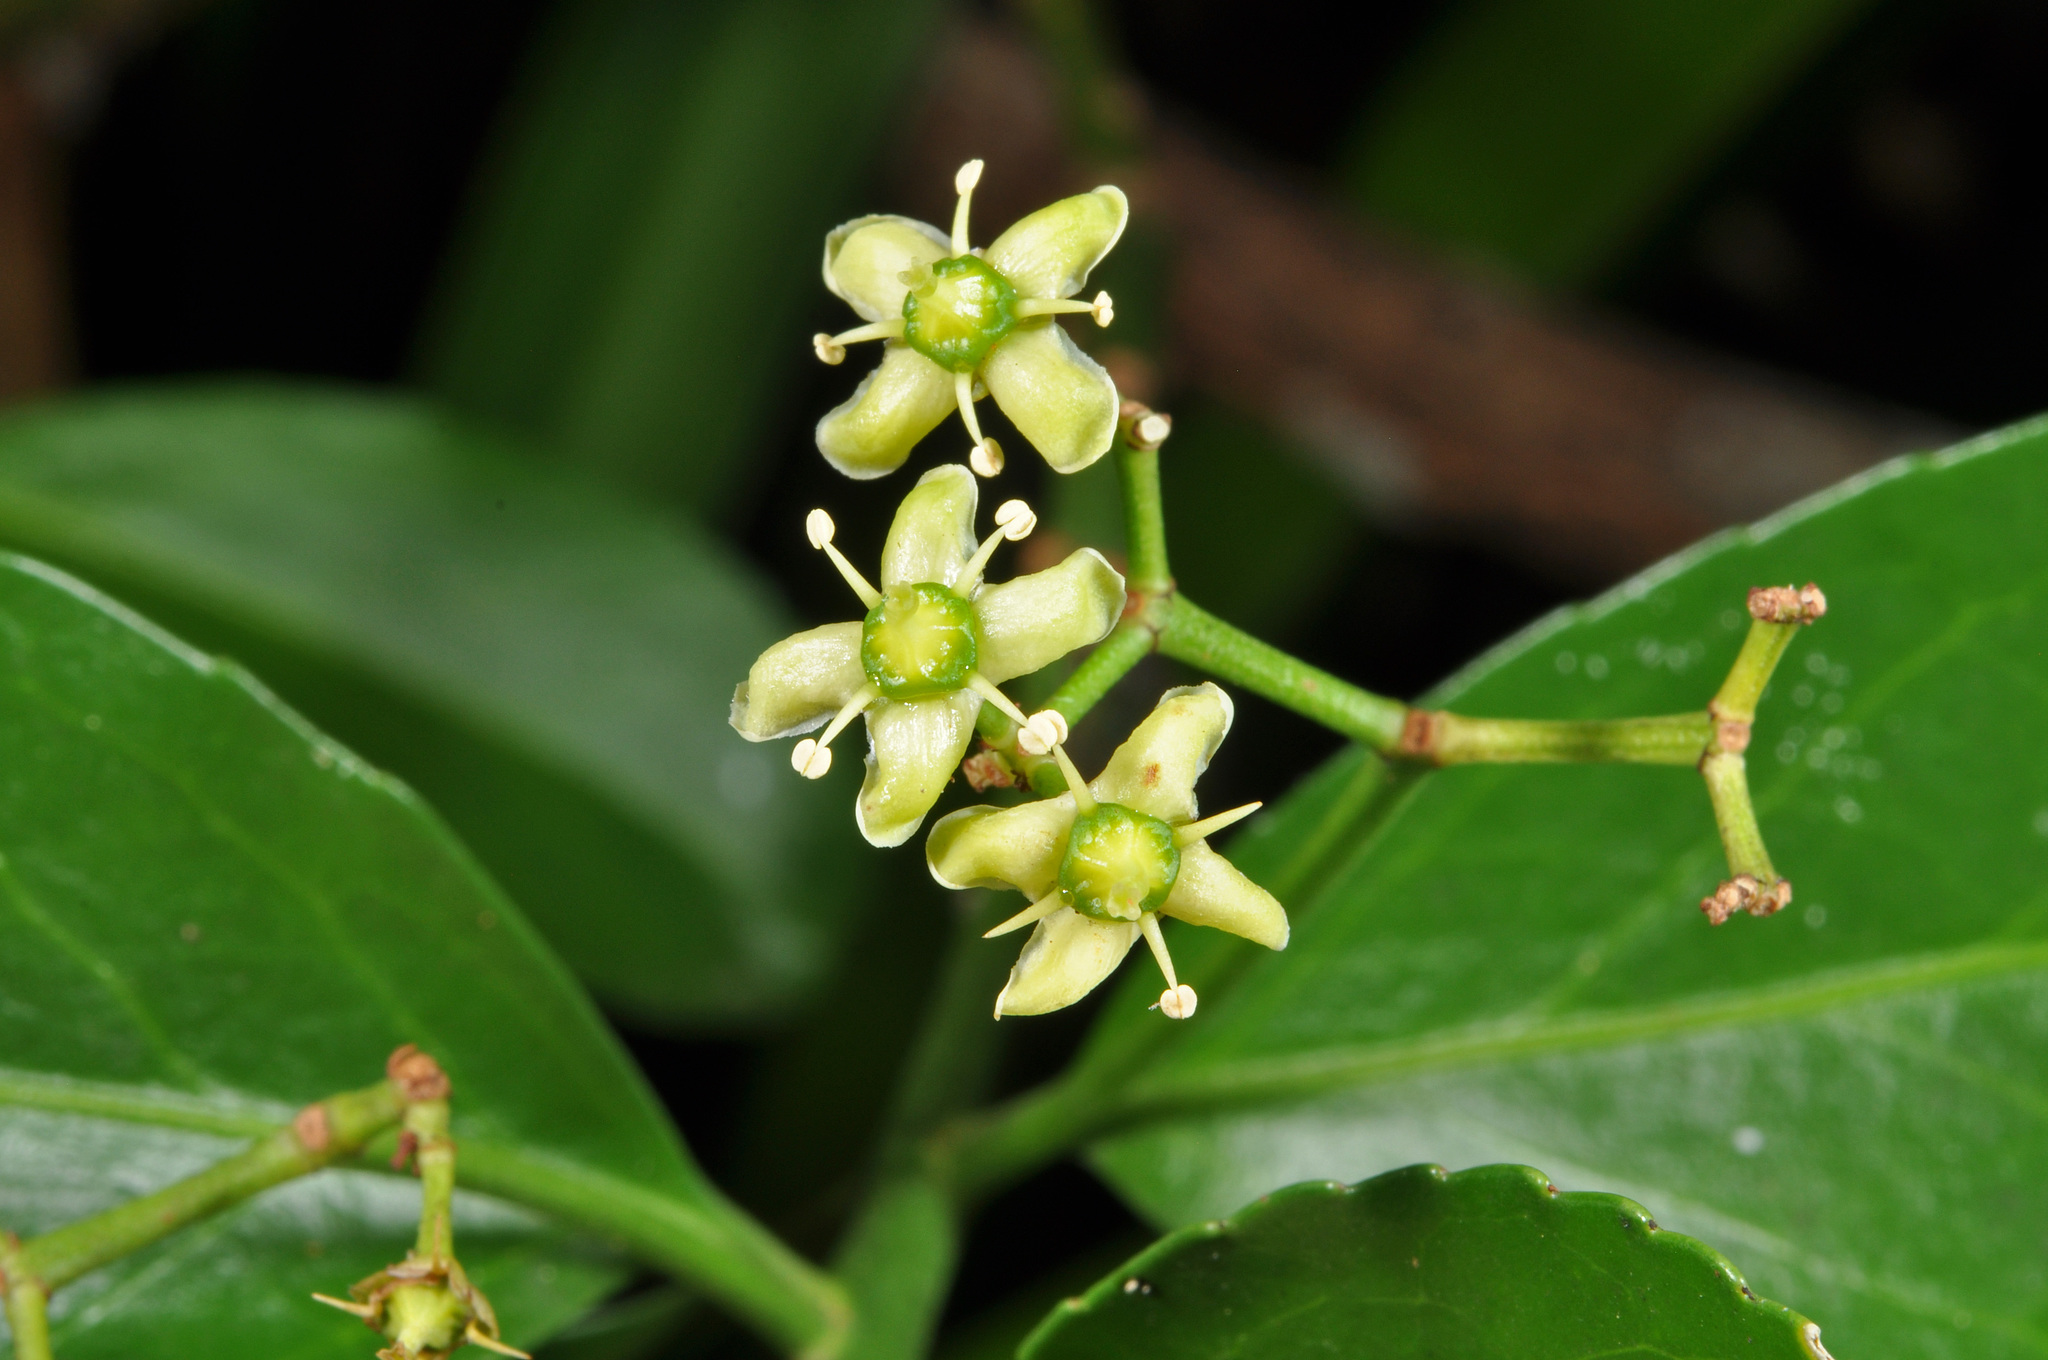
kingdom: Plantae
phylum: Tracheophyta
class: Magnoliopsida
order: Celastrales
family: Celastraceae
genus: Euonymus
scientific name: Euonymus japonicus
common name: Japanese spindletree
